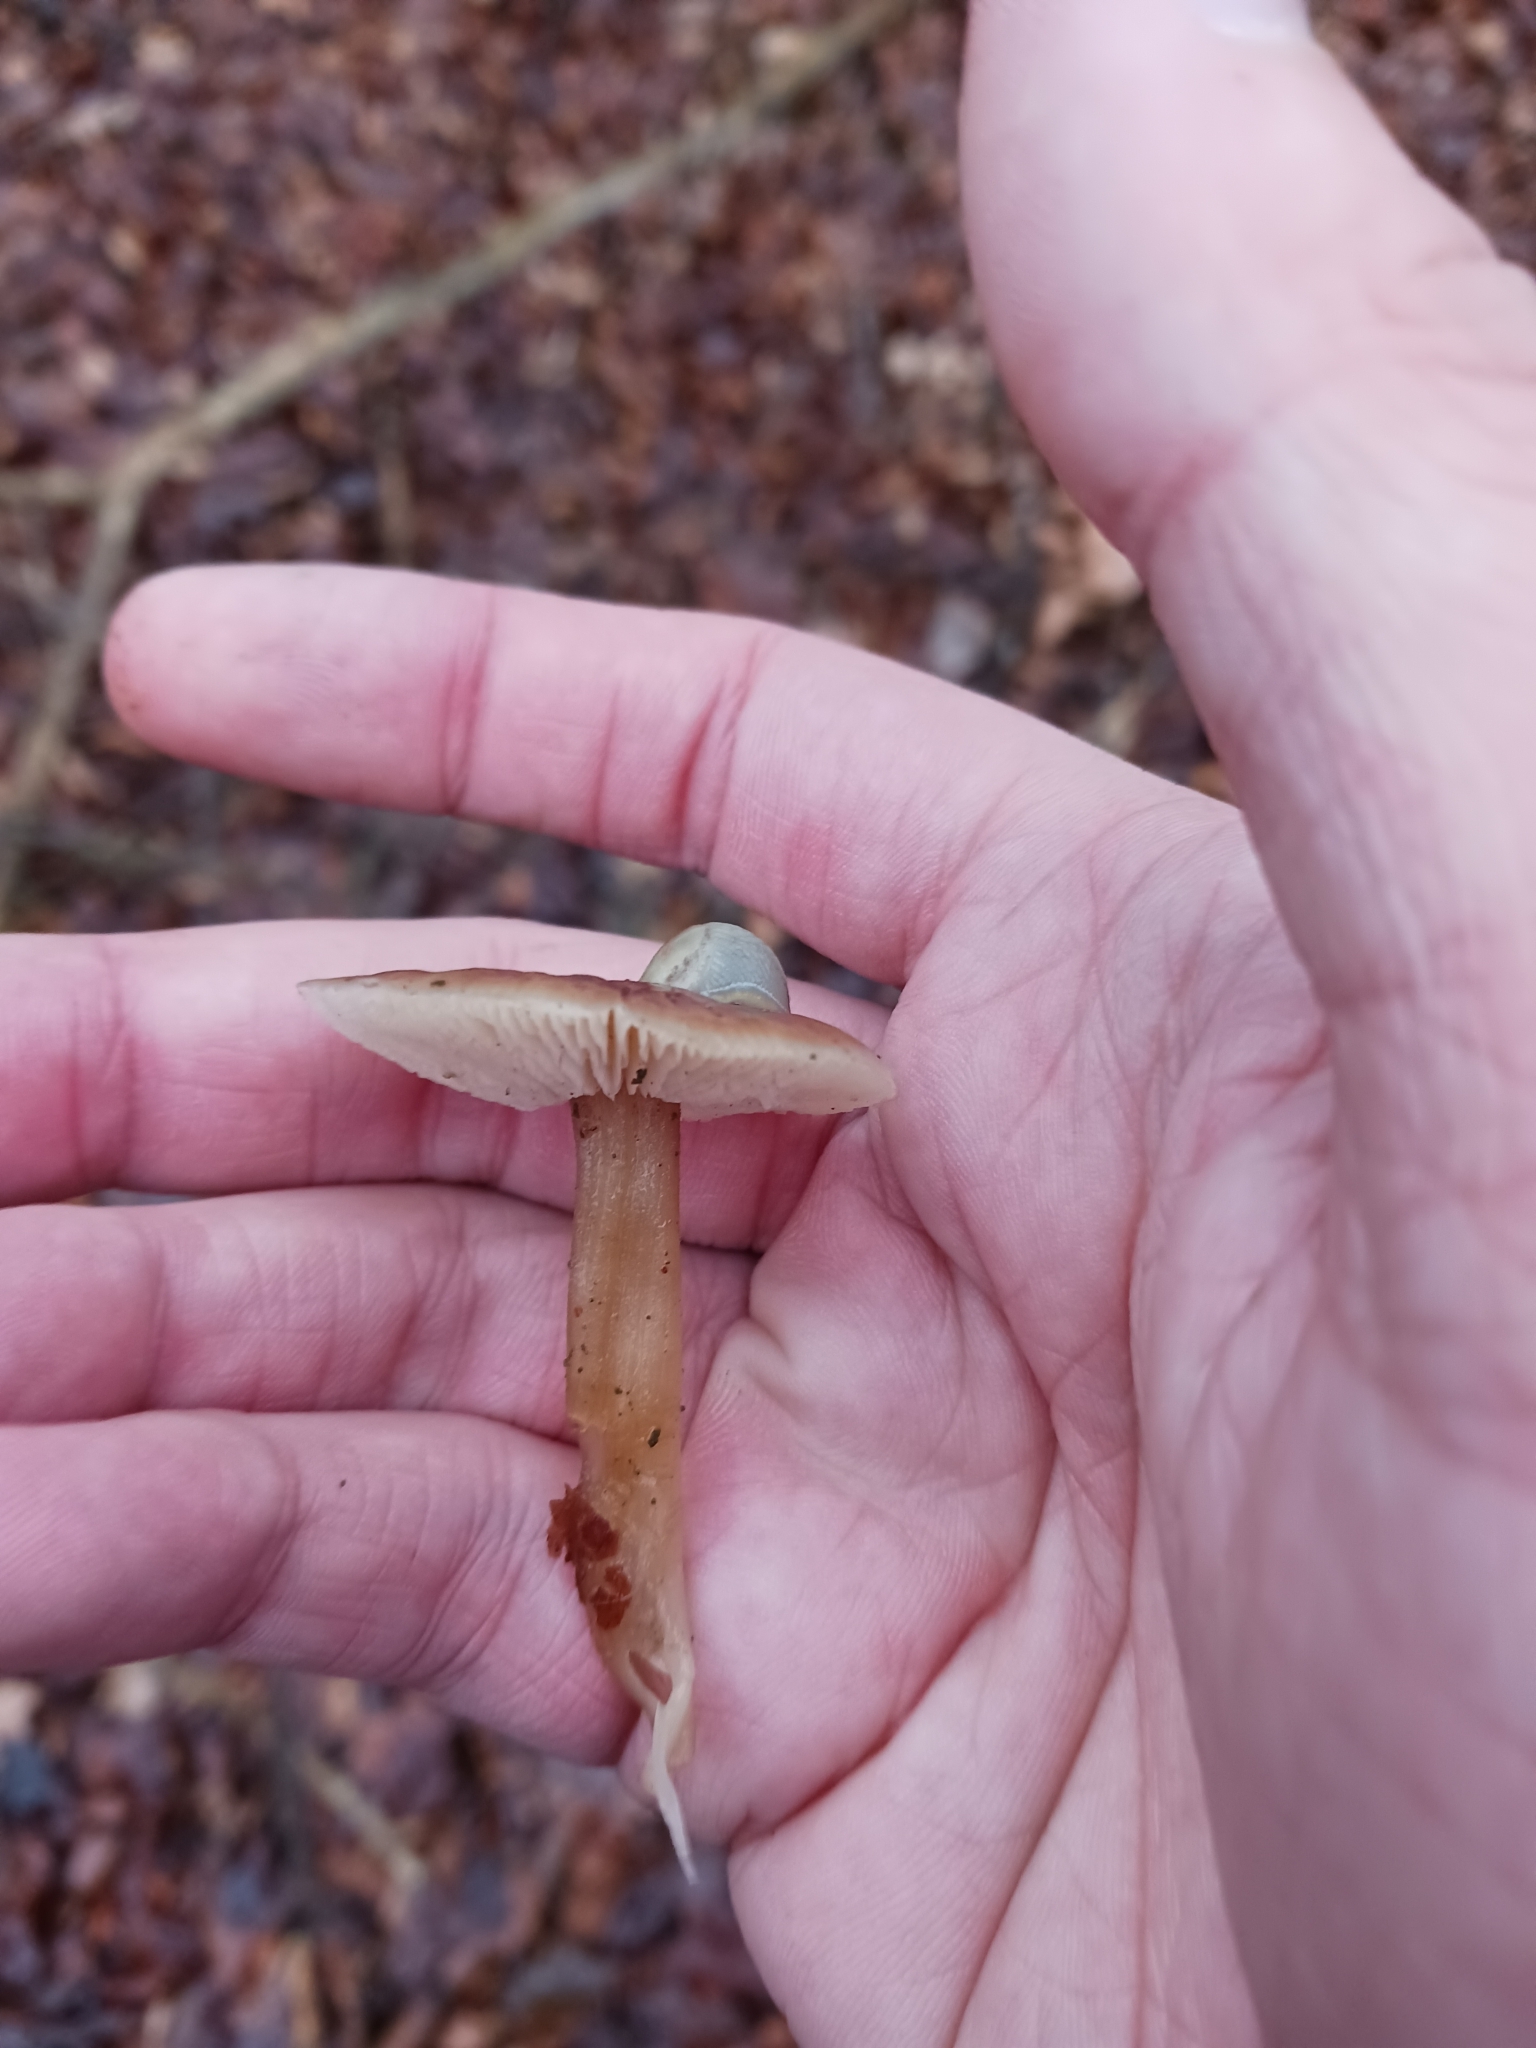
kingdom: Fungi
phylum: Basidiomycota
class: Agaricomycetes
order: Agaricales
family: Omphalotaceae
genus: Rhodocollybia
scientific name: Rhodocollybia butyracea
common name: Butter cap
